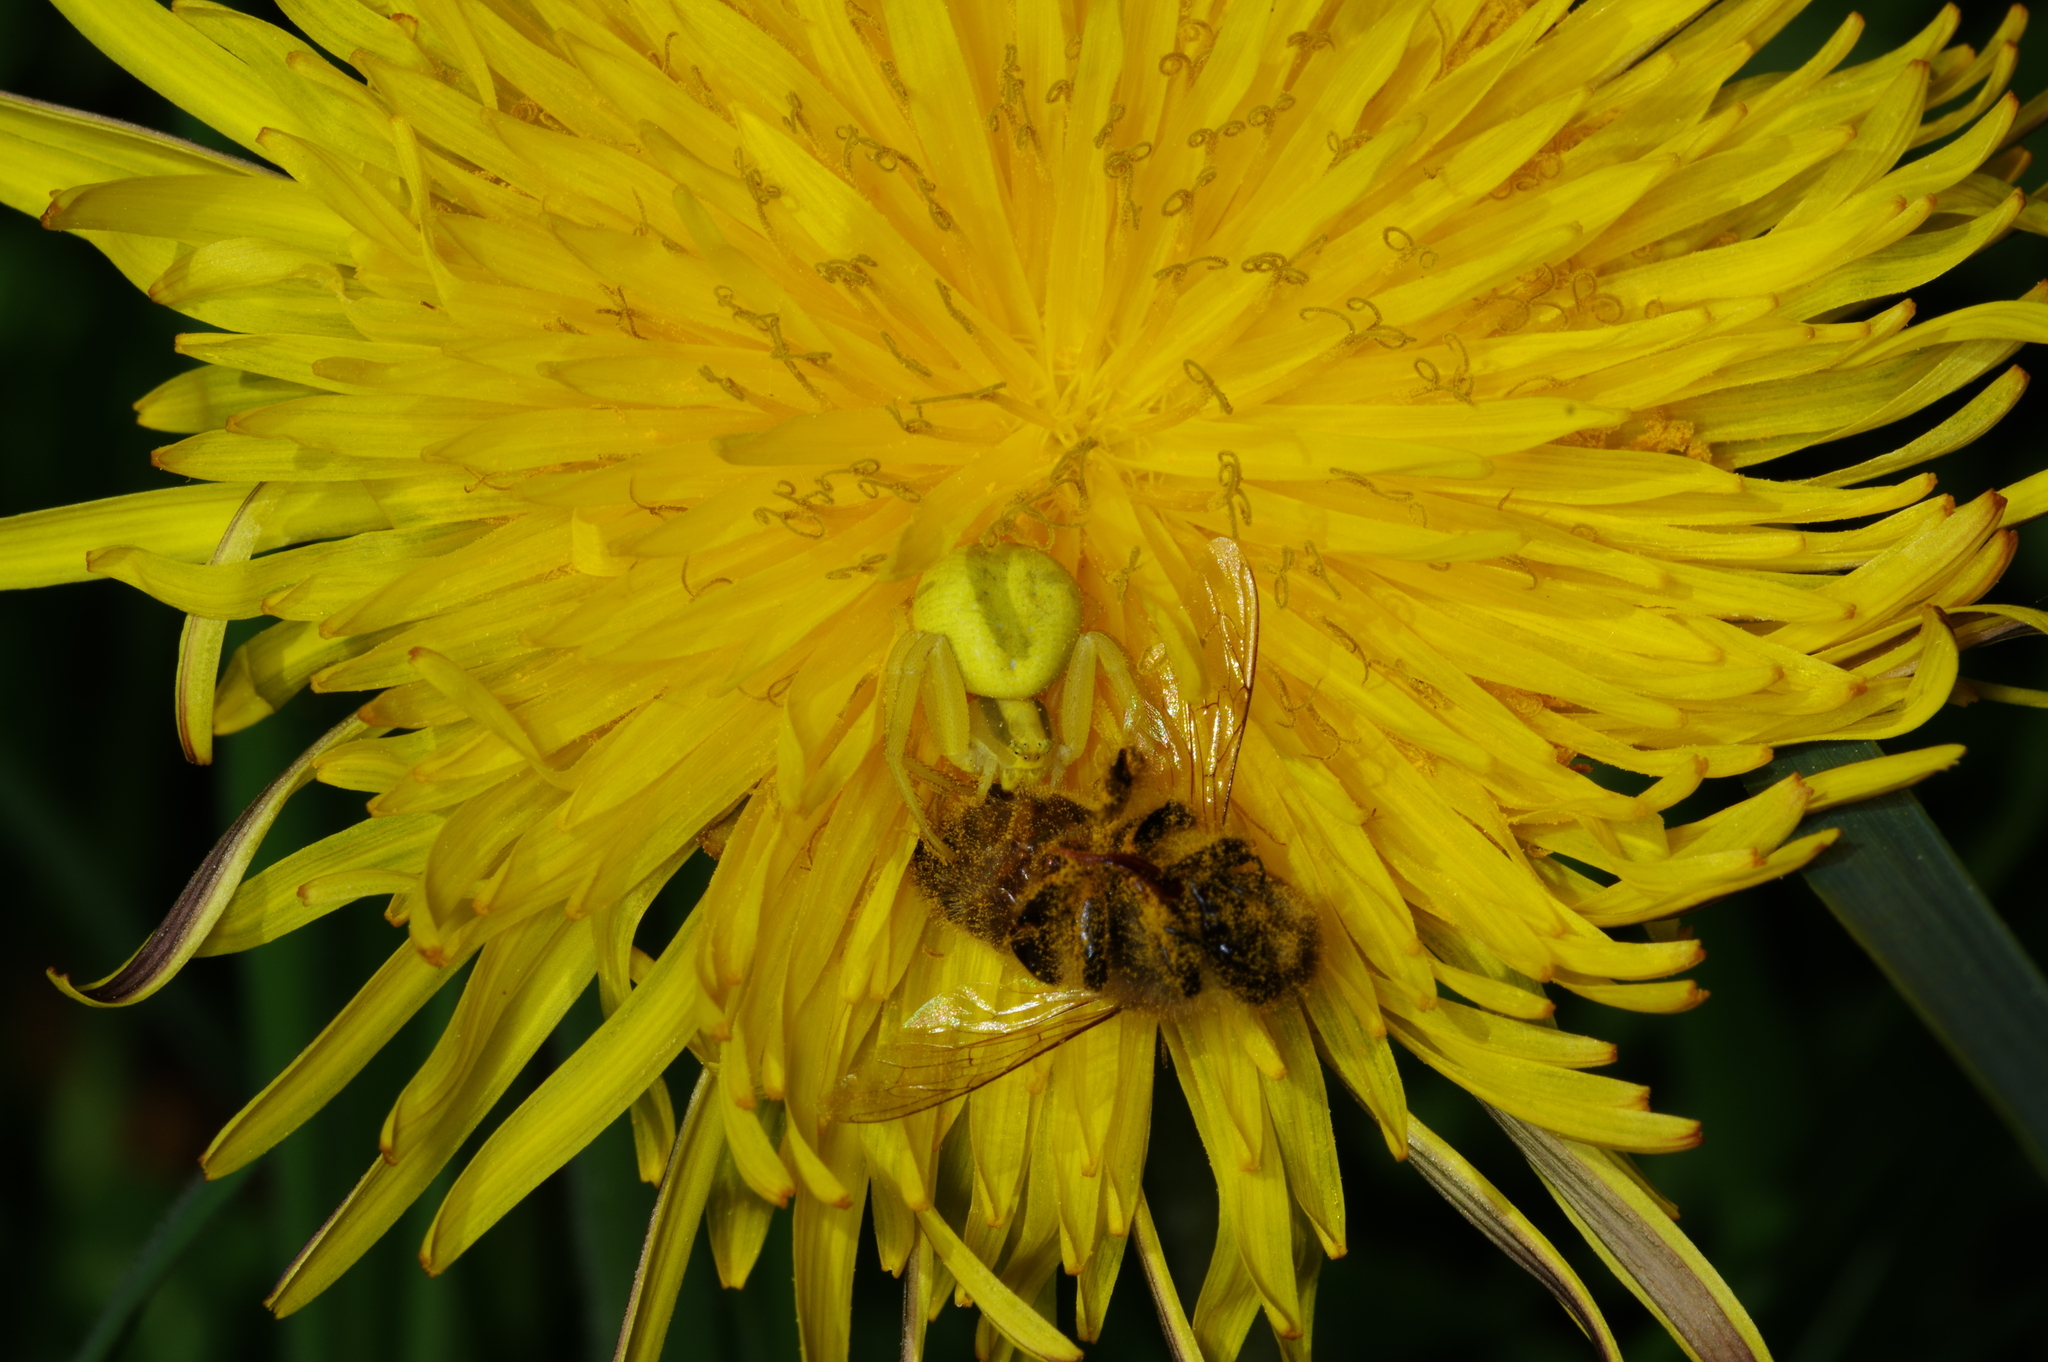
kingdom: Animalia
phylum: Arthropoda
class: Arachnida
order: Araneae
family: Thomisidae
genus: Misumena
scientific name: Misumena vatia
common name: Goldenrod crab spider
